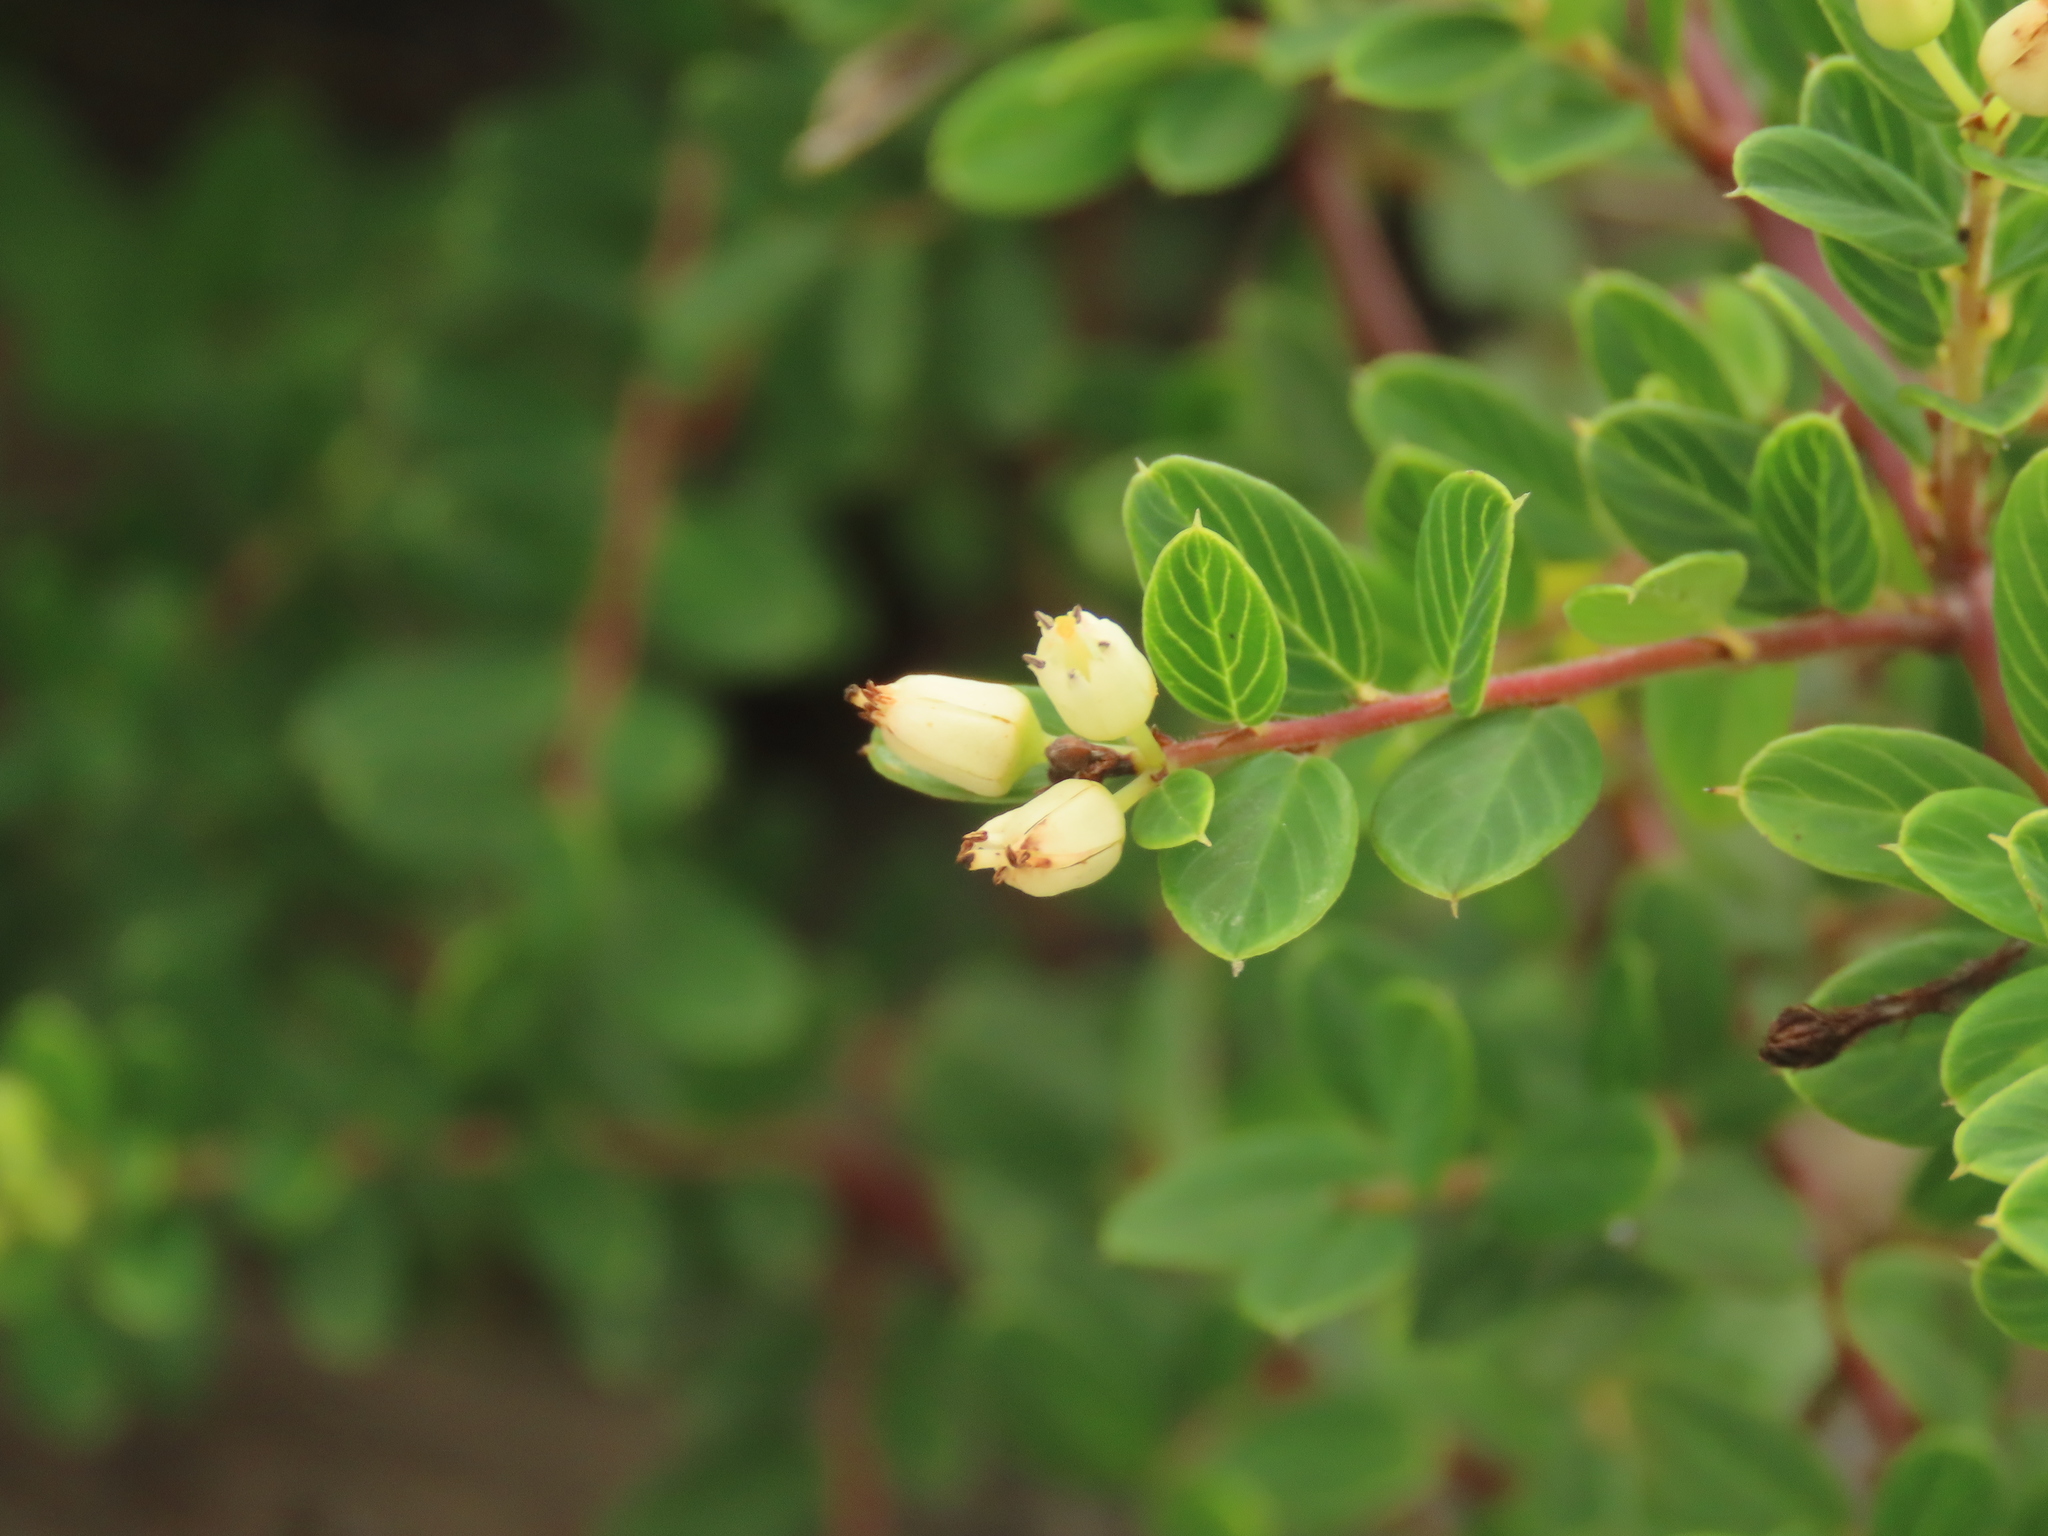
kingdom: Plantae
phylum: Tracheophyta
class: Magnoliopsida
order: Rosales
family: Rhamnaceae
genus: Berchemia
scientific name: Berchemia lineata
